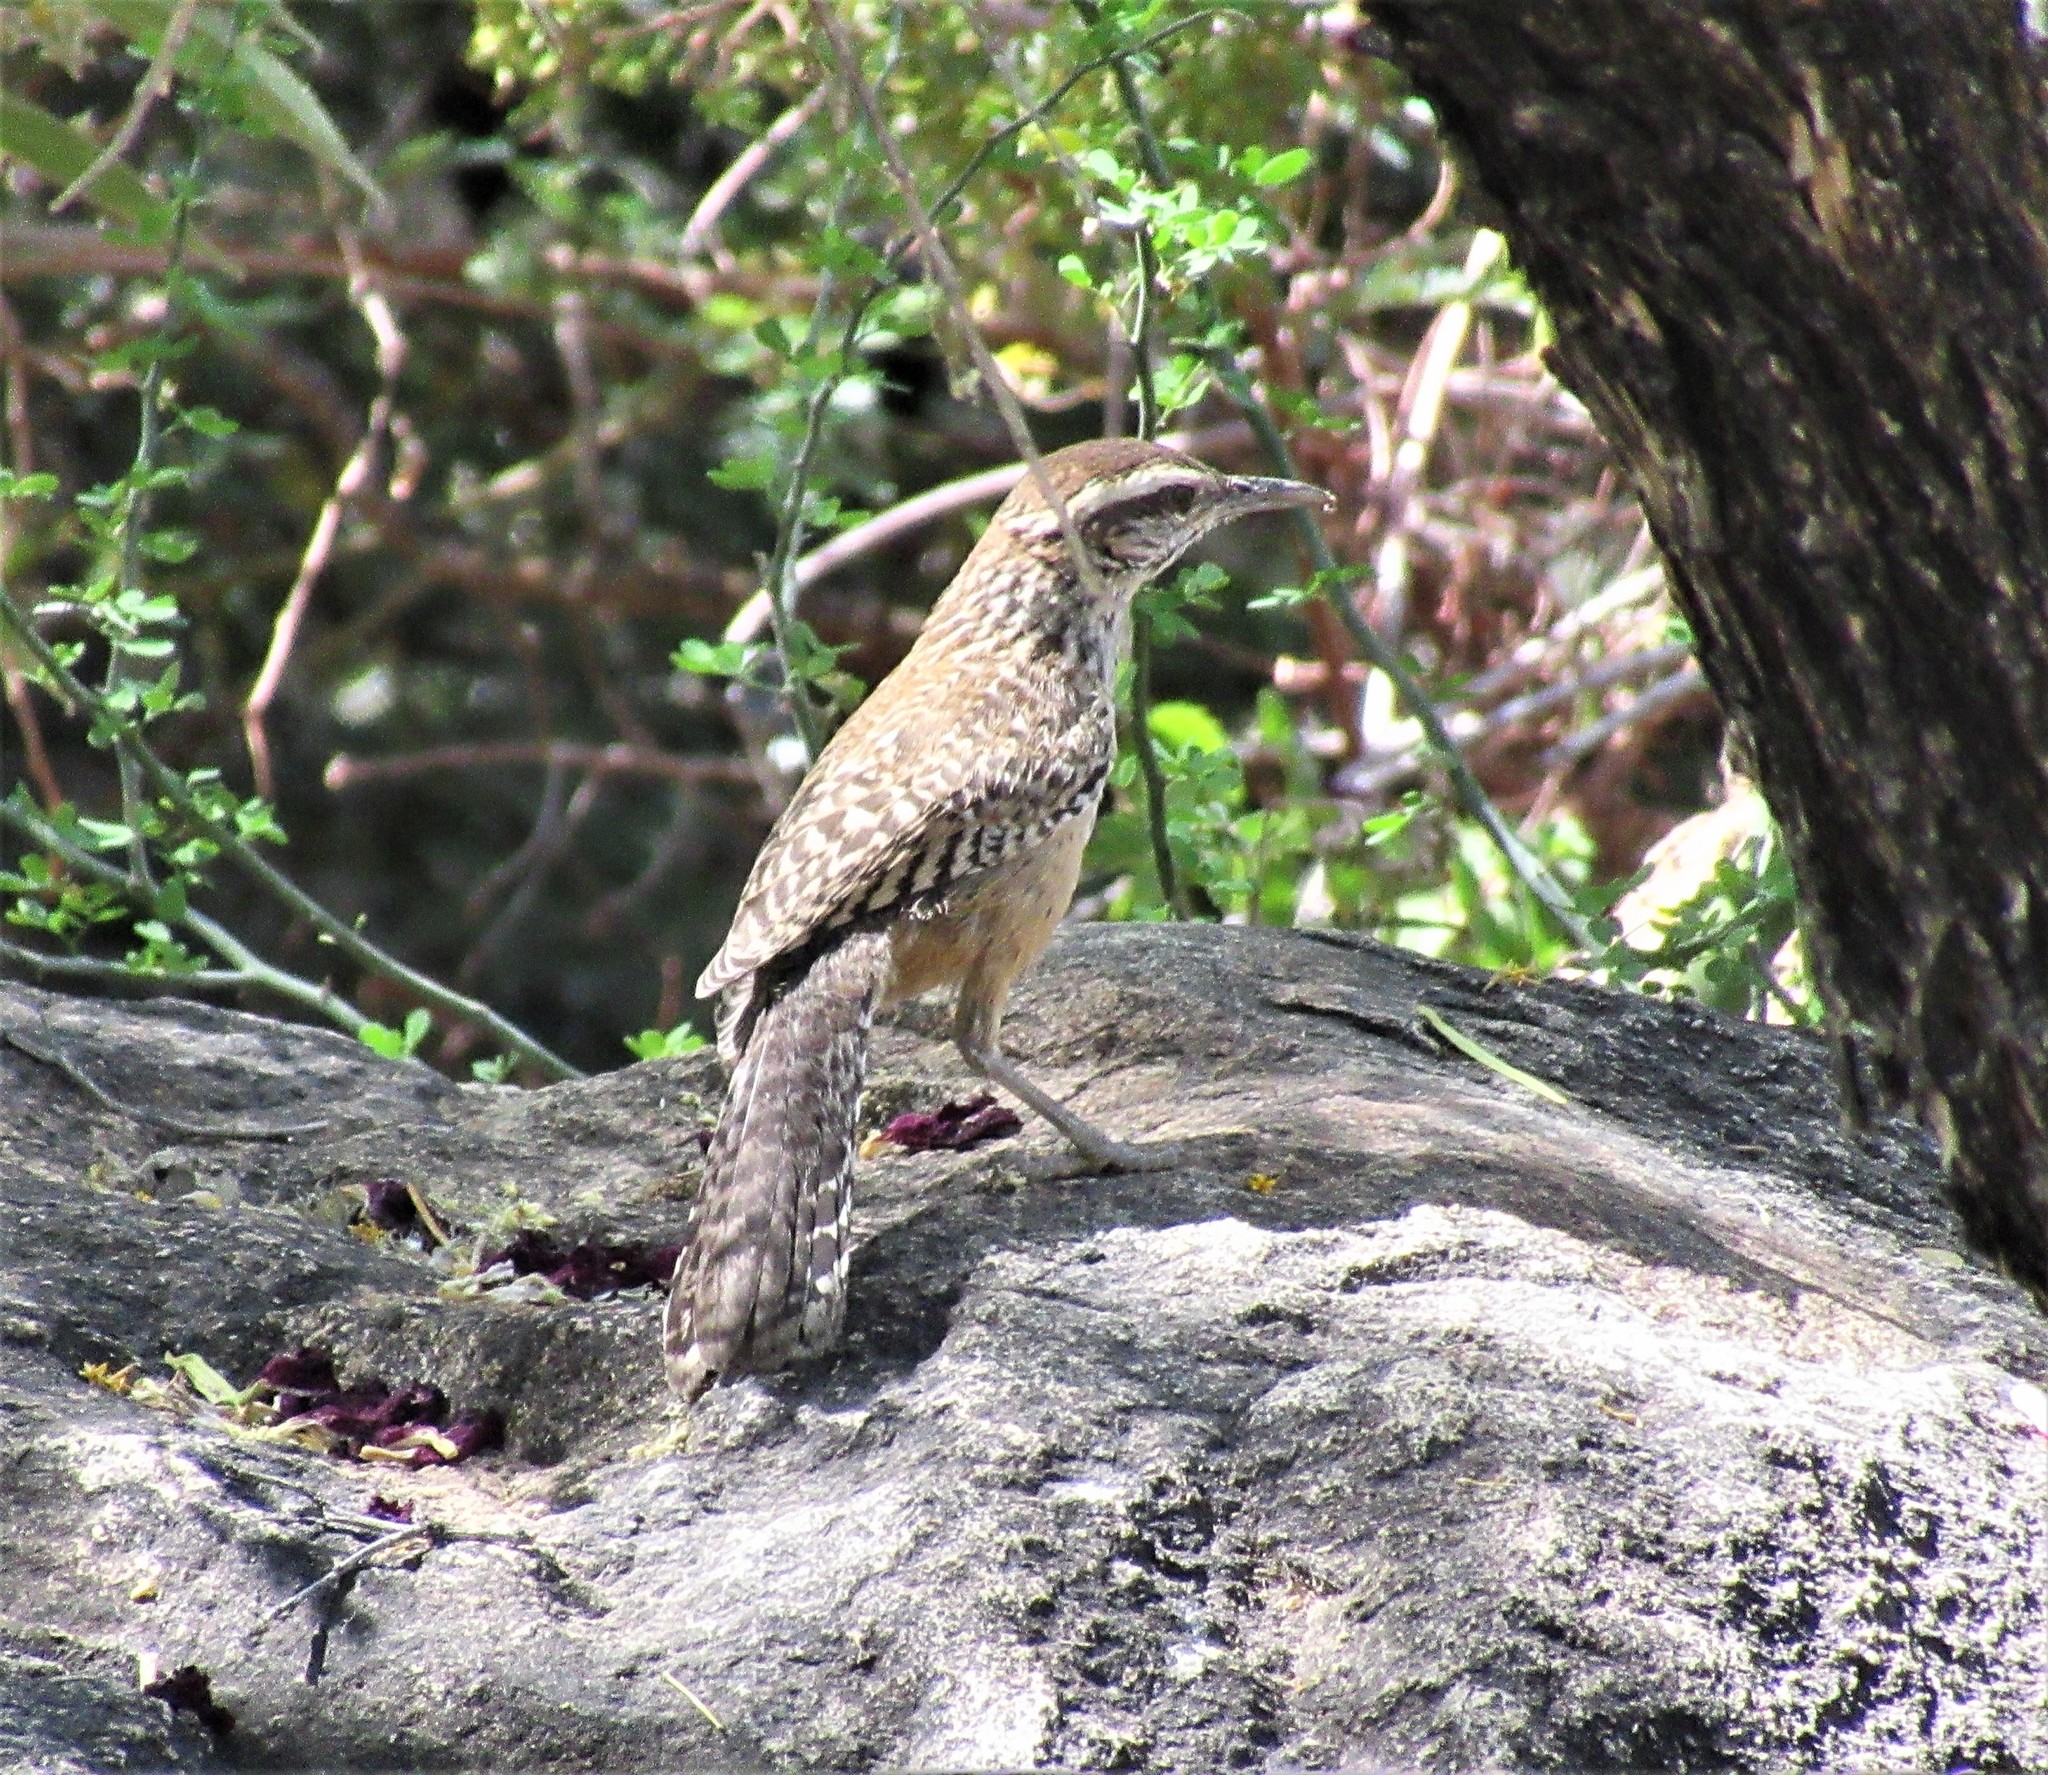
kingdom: Animalia
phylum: Chordata
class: Aves
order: Passeriformes
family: Troglodytidae
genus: Campylorhynchus
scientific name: Campylorhynchus brunneicapillus
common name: Cactus wren
